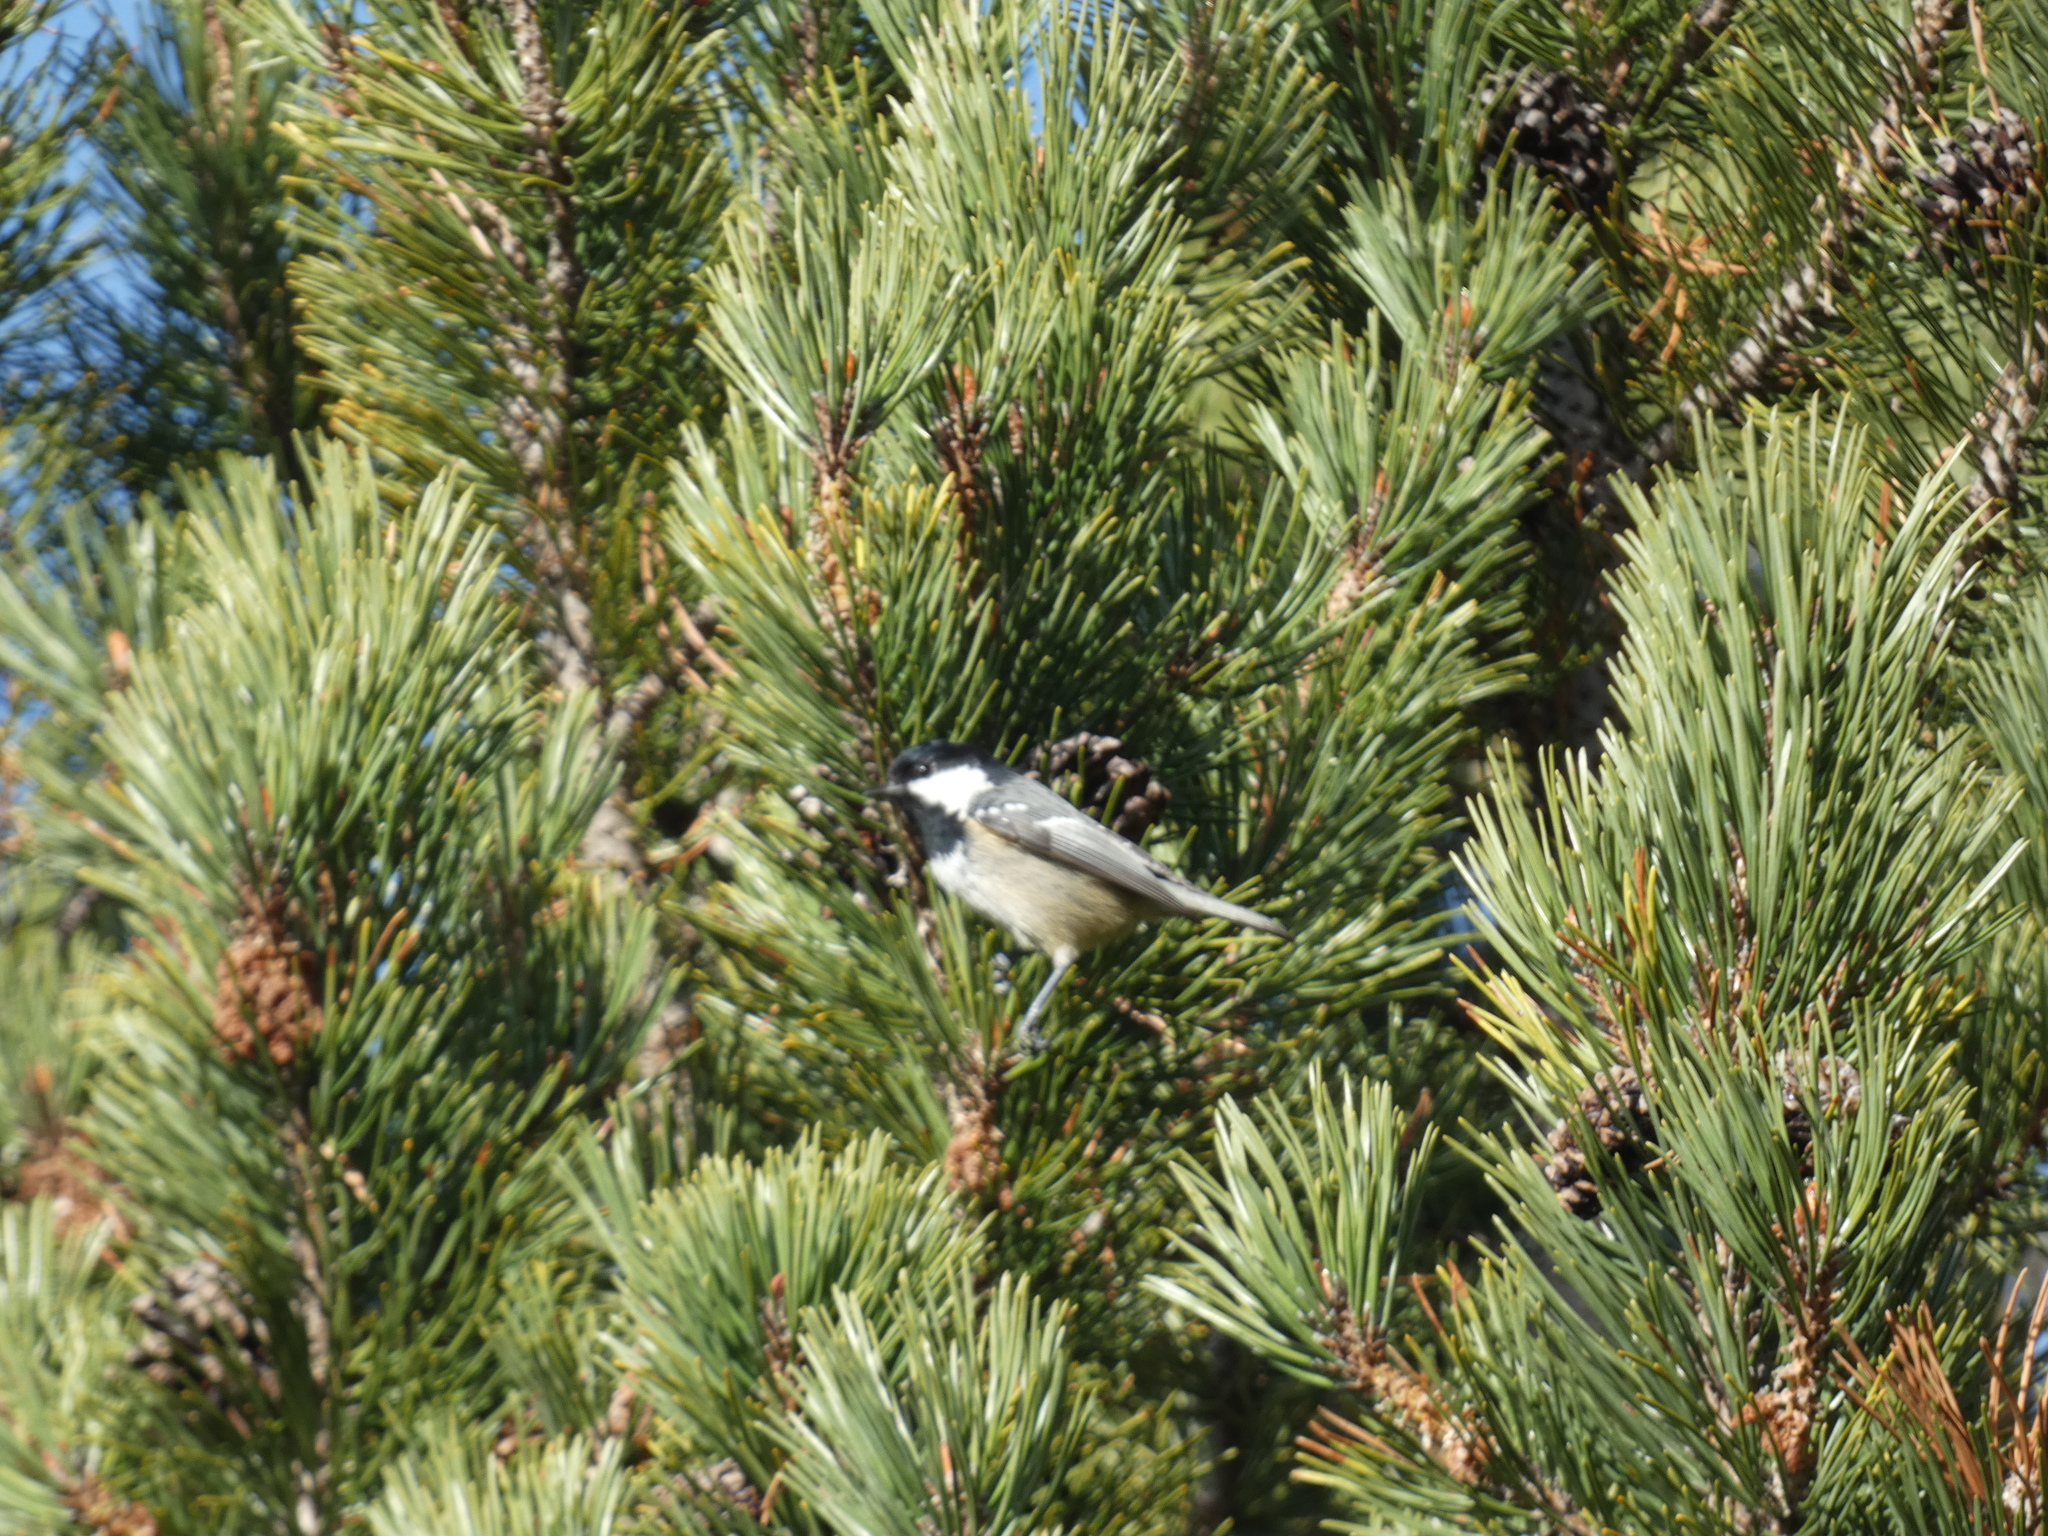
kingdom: Animalia
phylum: Chordata
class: Aves
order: Passeriformes
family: Paridae
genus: Periparus
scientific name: Periparus ater
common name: Coal tit
